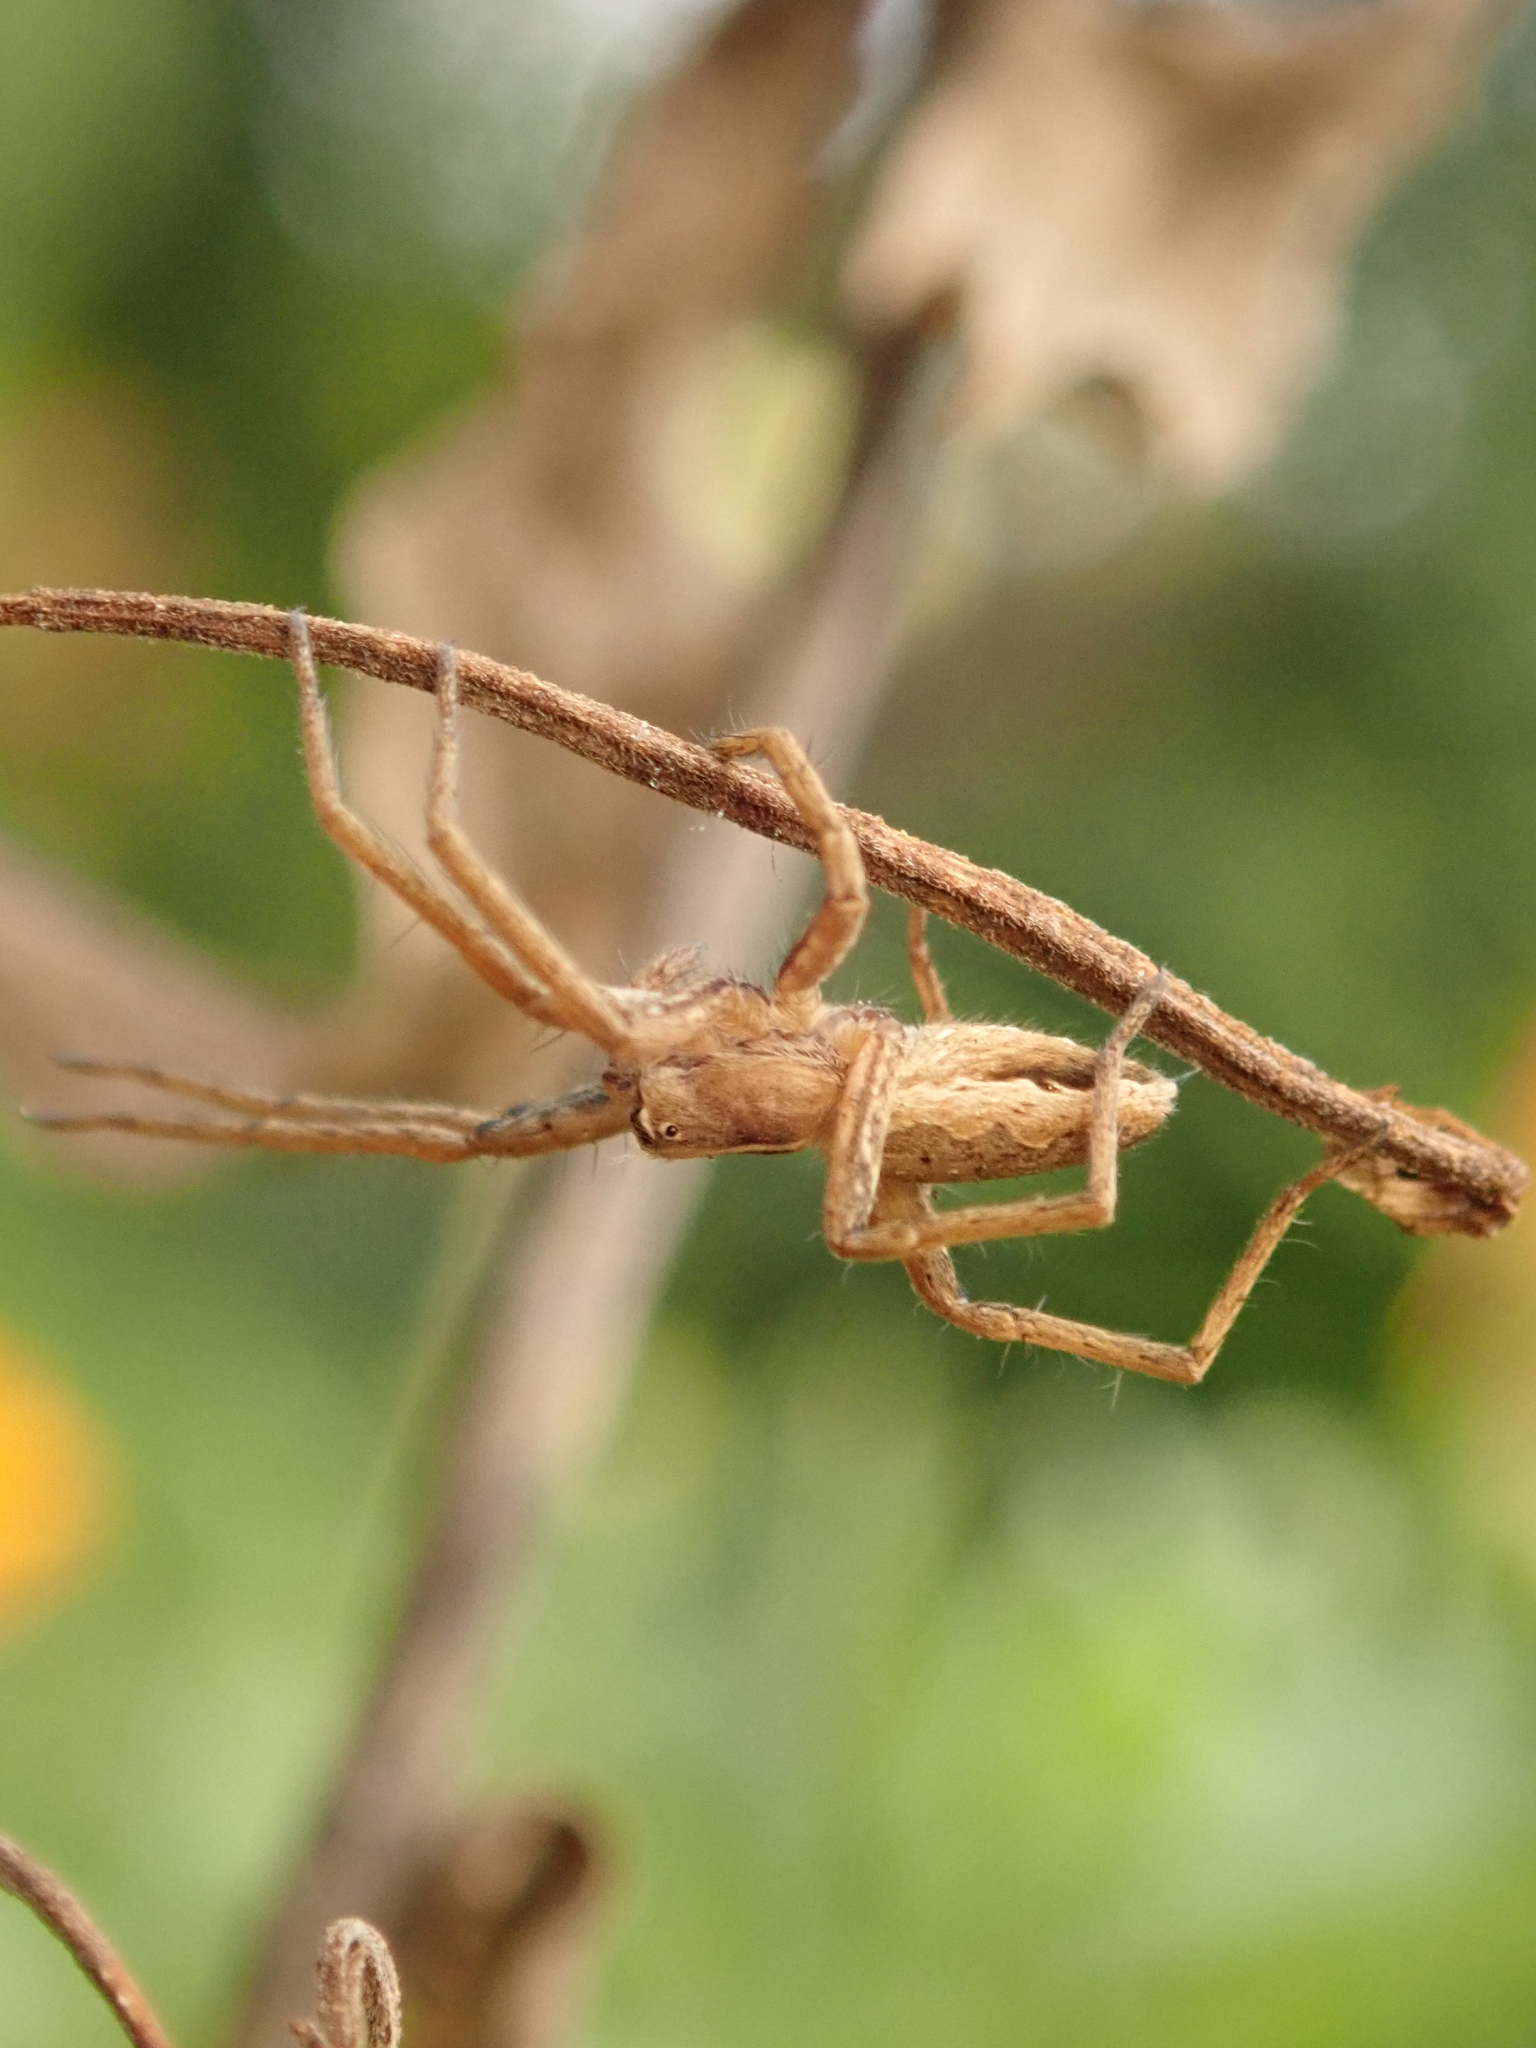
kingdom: Animalia
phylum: Arthropoda
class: Arachnida
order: Araneae
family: Pisauridae
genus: Pisaura
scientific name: Pisaura mirabilis
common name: Tent spider
